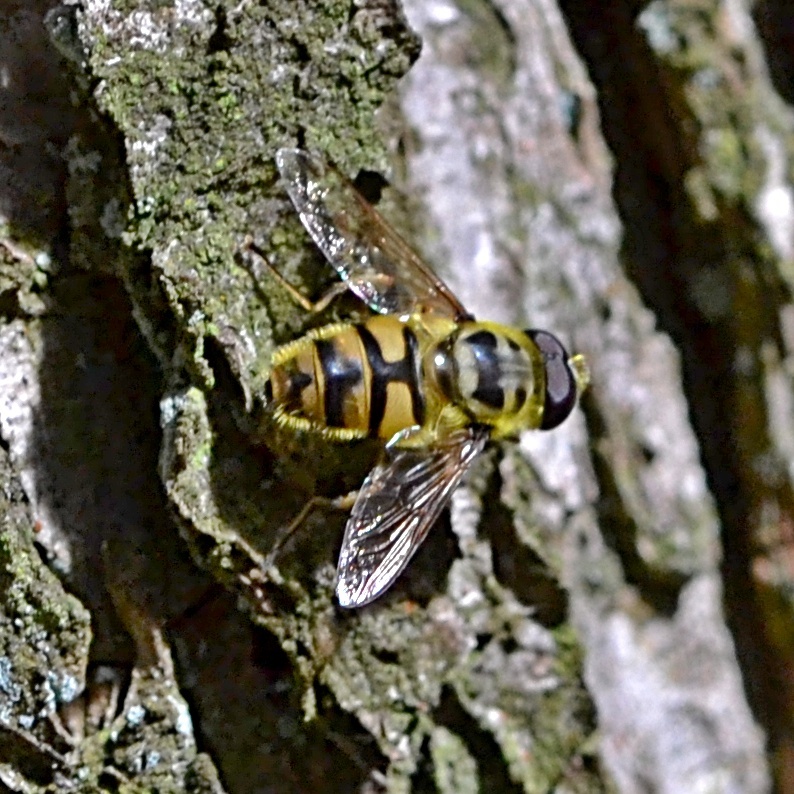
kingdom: Animalia
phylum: Arthropoda
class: Insecta
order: Diptera
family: Syrphidae
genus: Myathropa
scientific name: Myathropa florea
